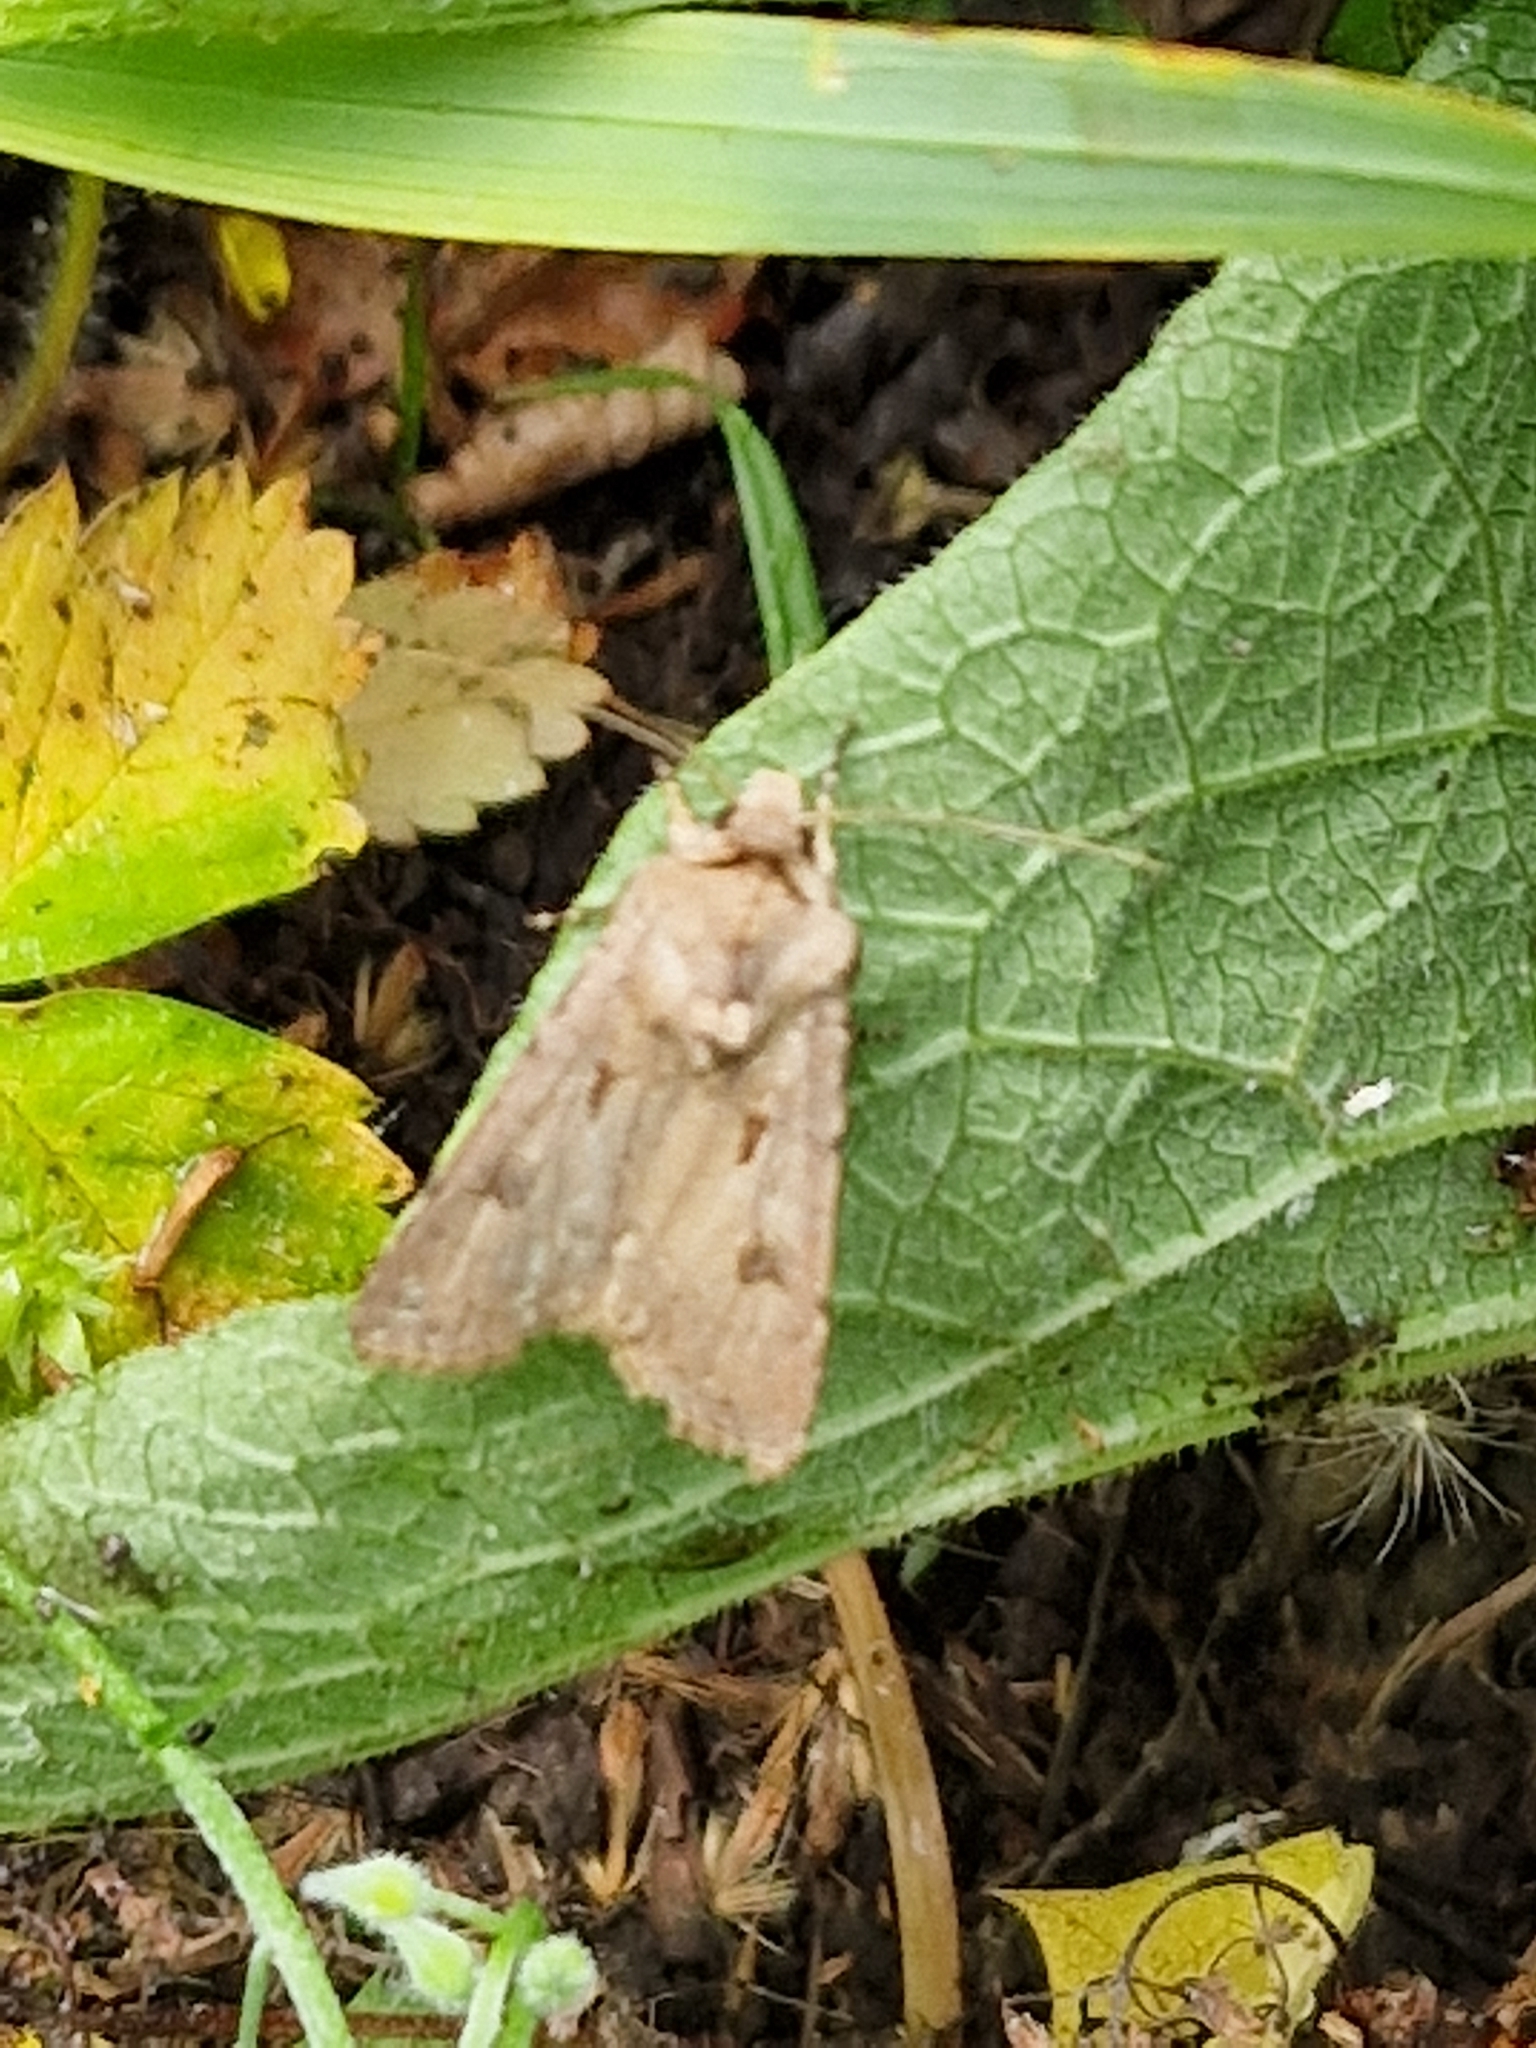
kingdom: Animalia
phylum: Arthropoda
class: Insecta
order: Lepidoptera
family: Noctuidae
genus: Agrotis
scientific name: Agrotis exclamationis
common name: Heart and dart
